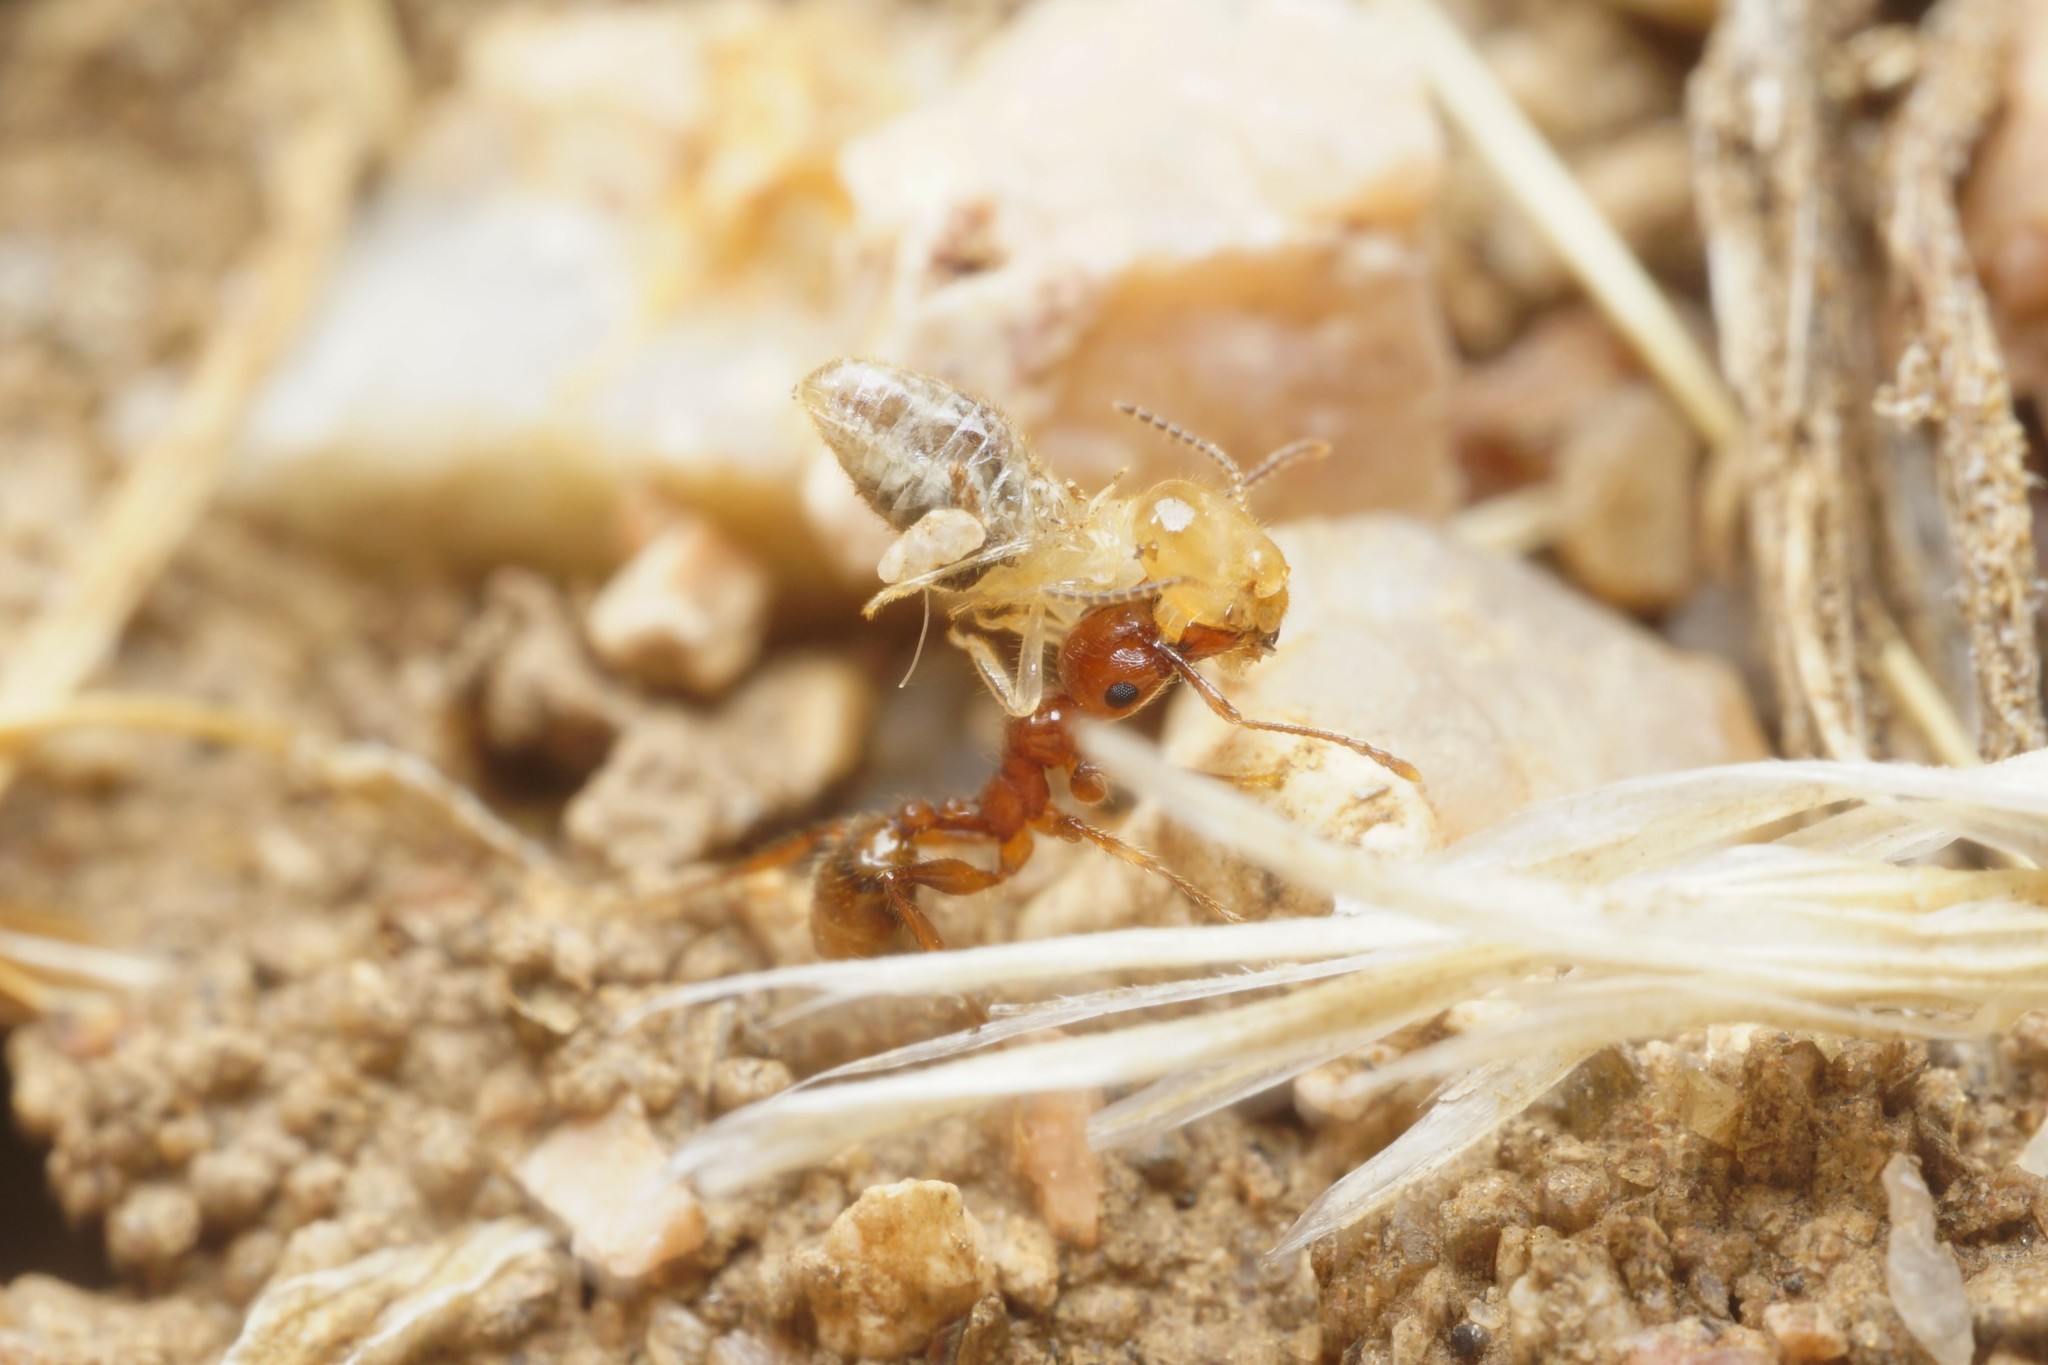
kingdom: Animalia
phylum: Arthropoda
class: Insecta
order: Hymenoptera
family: Formicidae
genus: Pheidole
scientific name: Pheidole titanis
